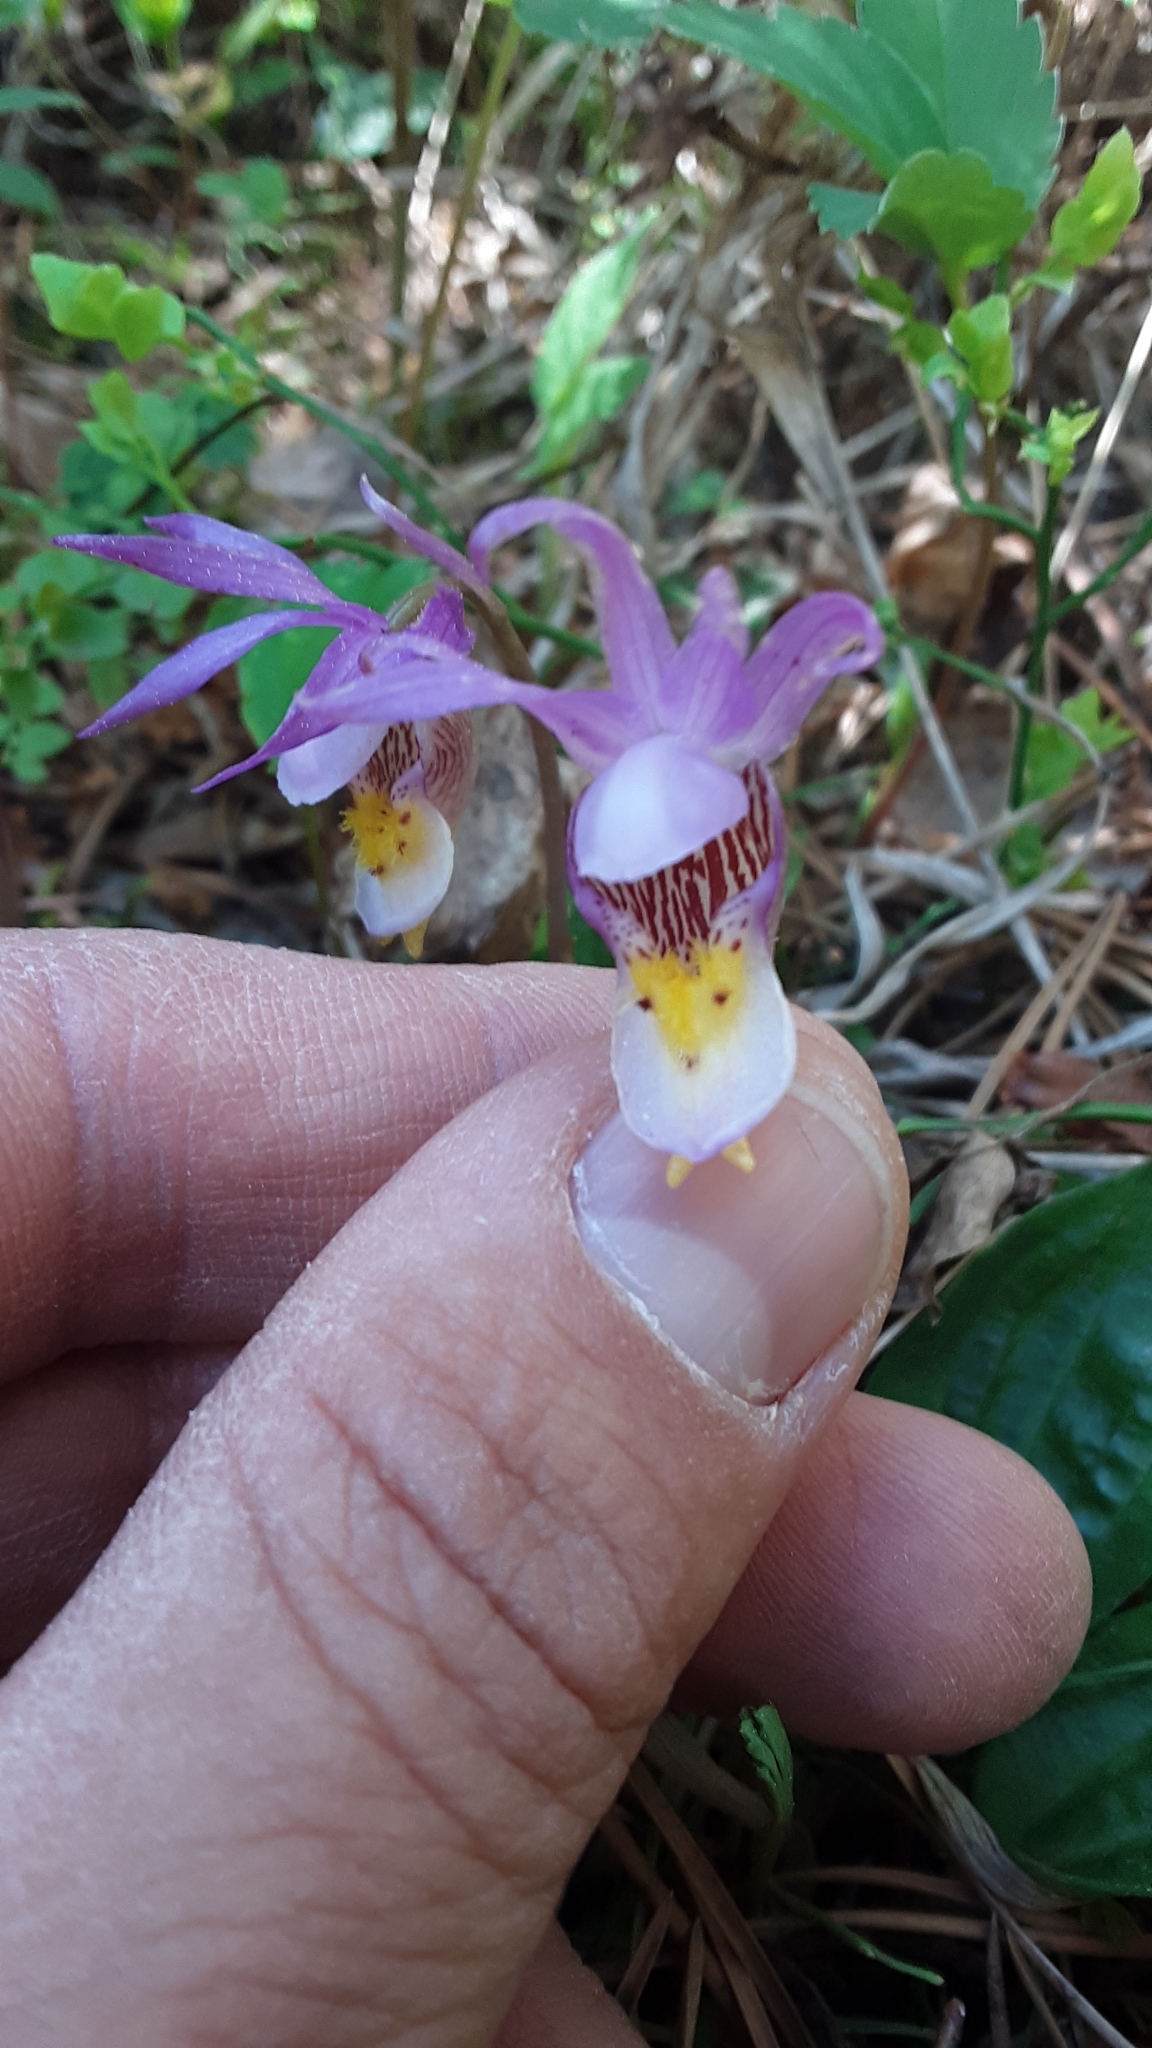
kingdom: Plantae
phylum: Tracheophyta
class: Liliopsida
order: Asparagales
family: Orchidaceae
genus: Calypso
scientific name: Calypso bulbosa
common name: Calypso
